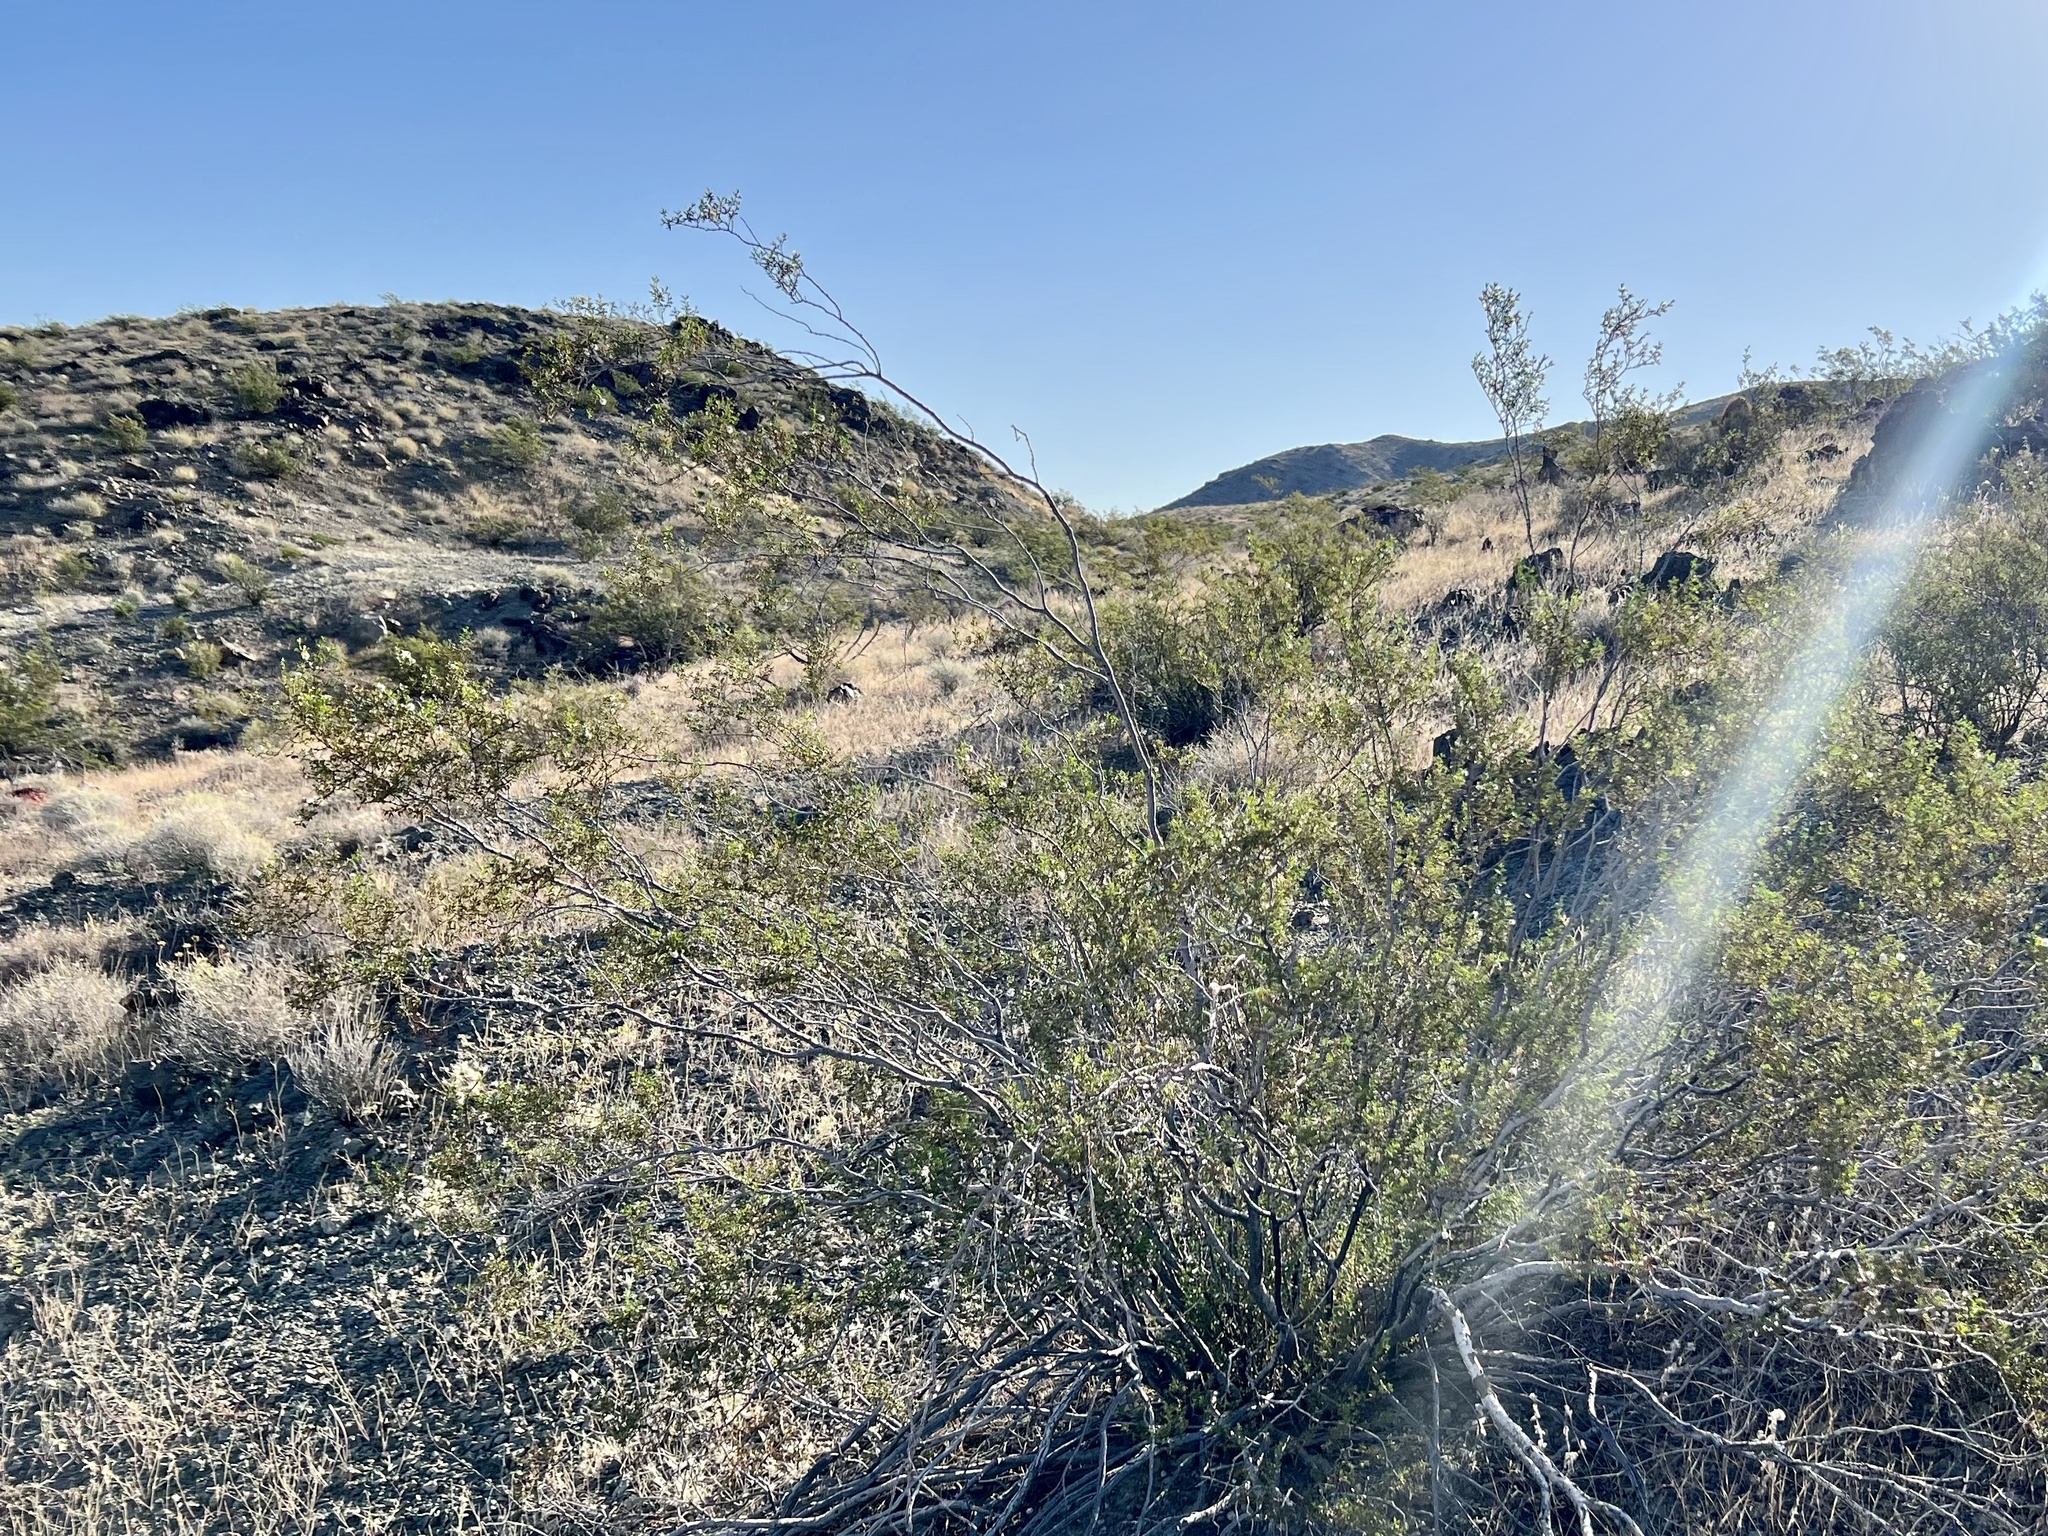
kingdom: Plantae
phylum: Tracheophyta
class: Magnoliopsida
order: Zygophyllales
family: Zygophyllaceae
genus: Larrea
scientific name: Larrea tridentata
